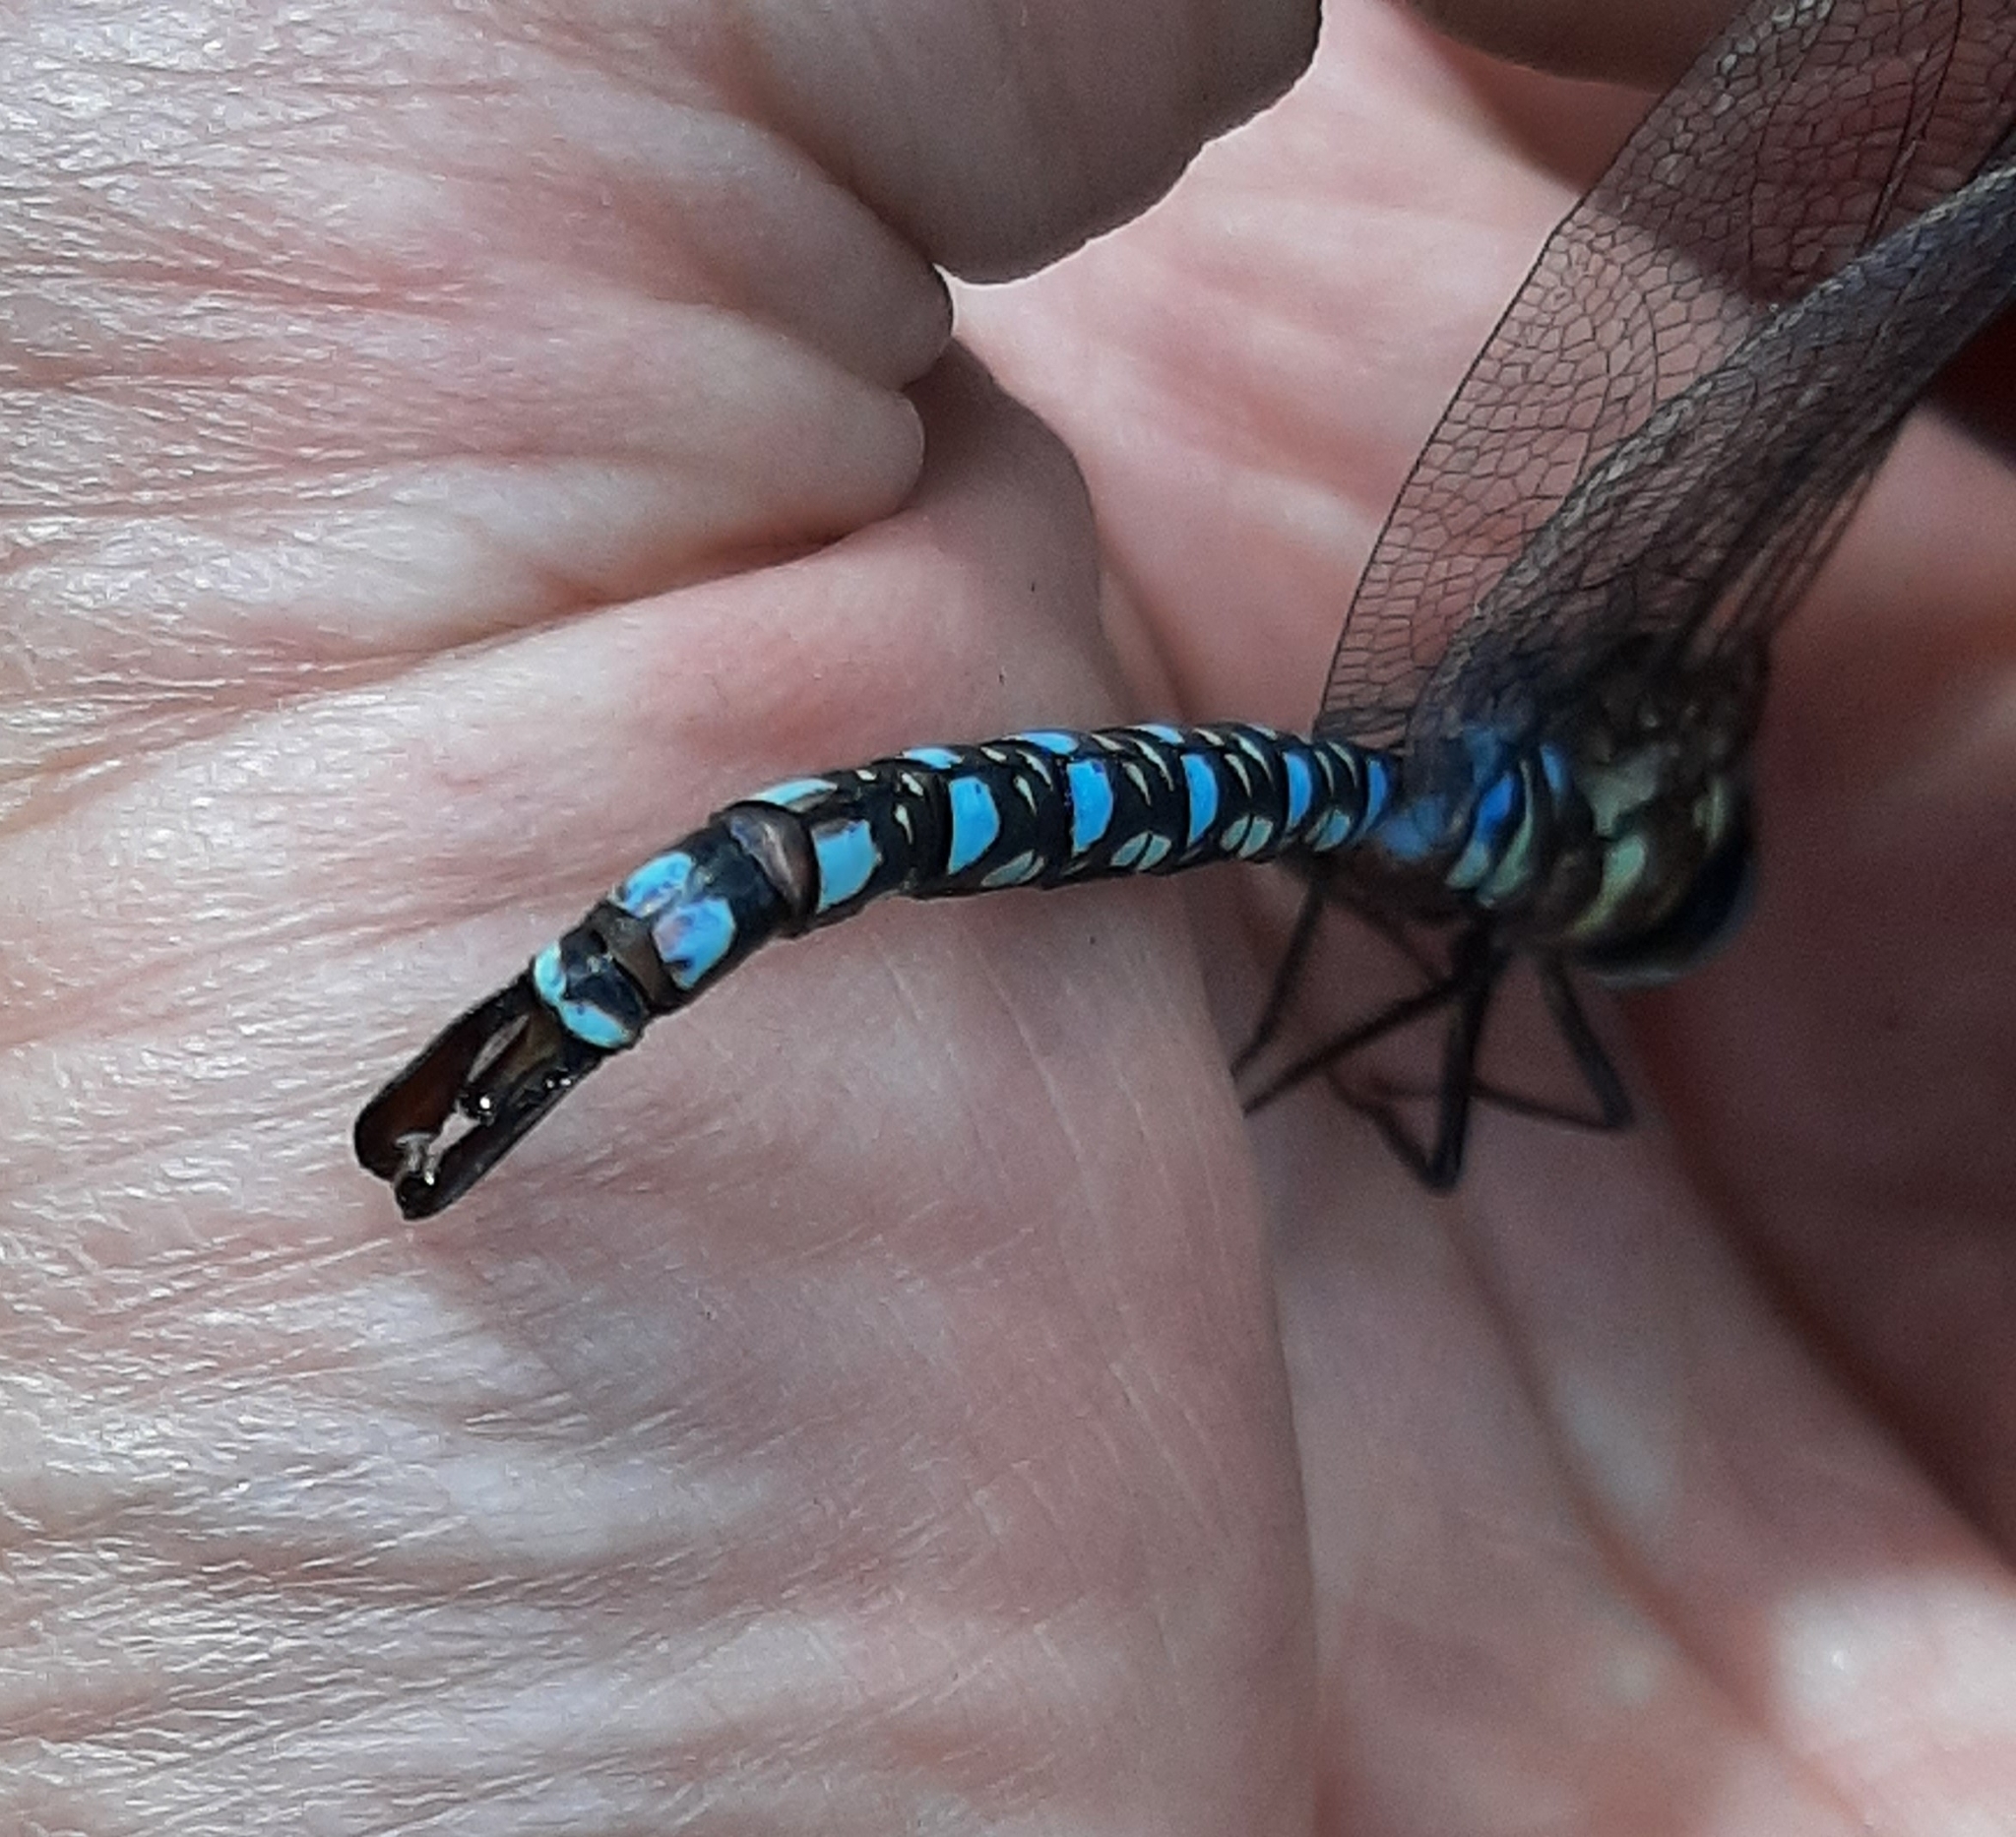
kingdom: Animalia
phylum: Arthropoda
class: Insecta
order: Odonata
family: Aeshnidae
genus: Aeshna
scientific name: Aeshna palmata
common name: Paddle-tailed darner
